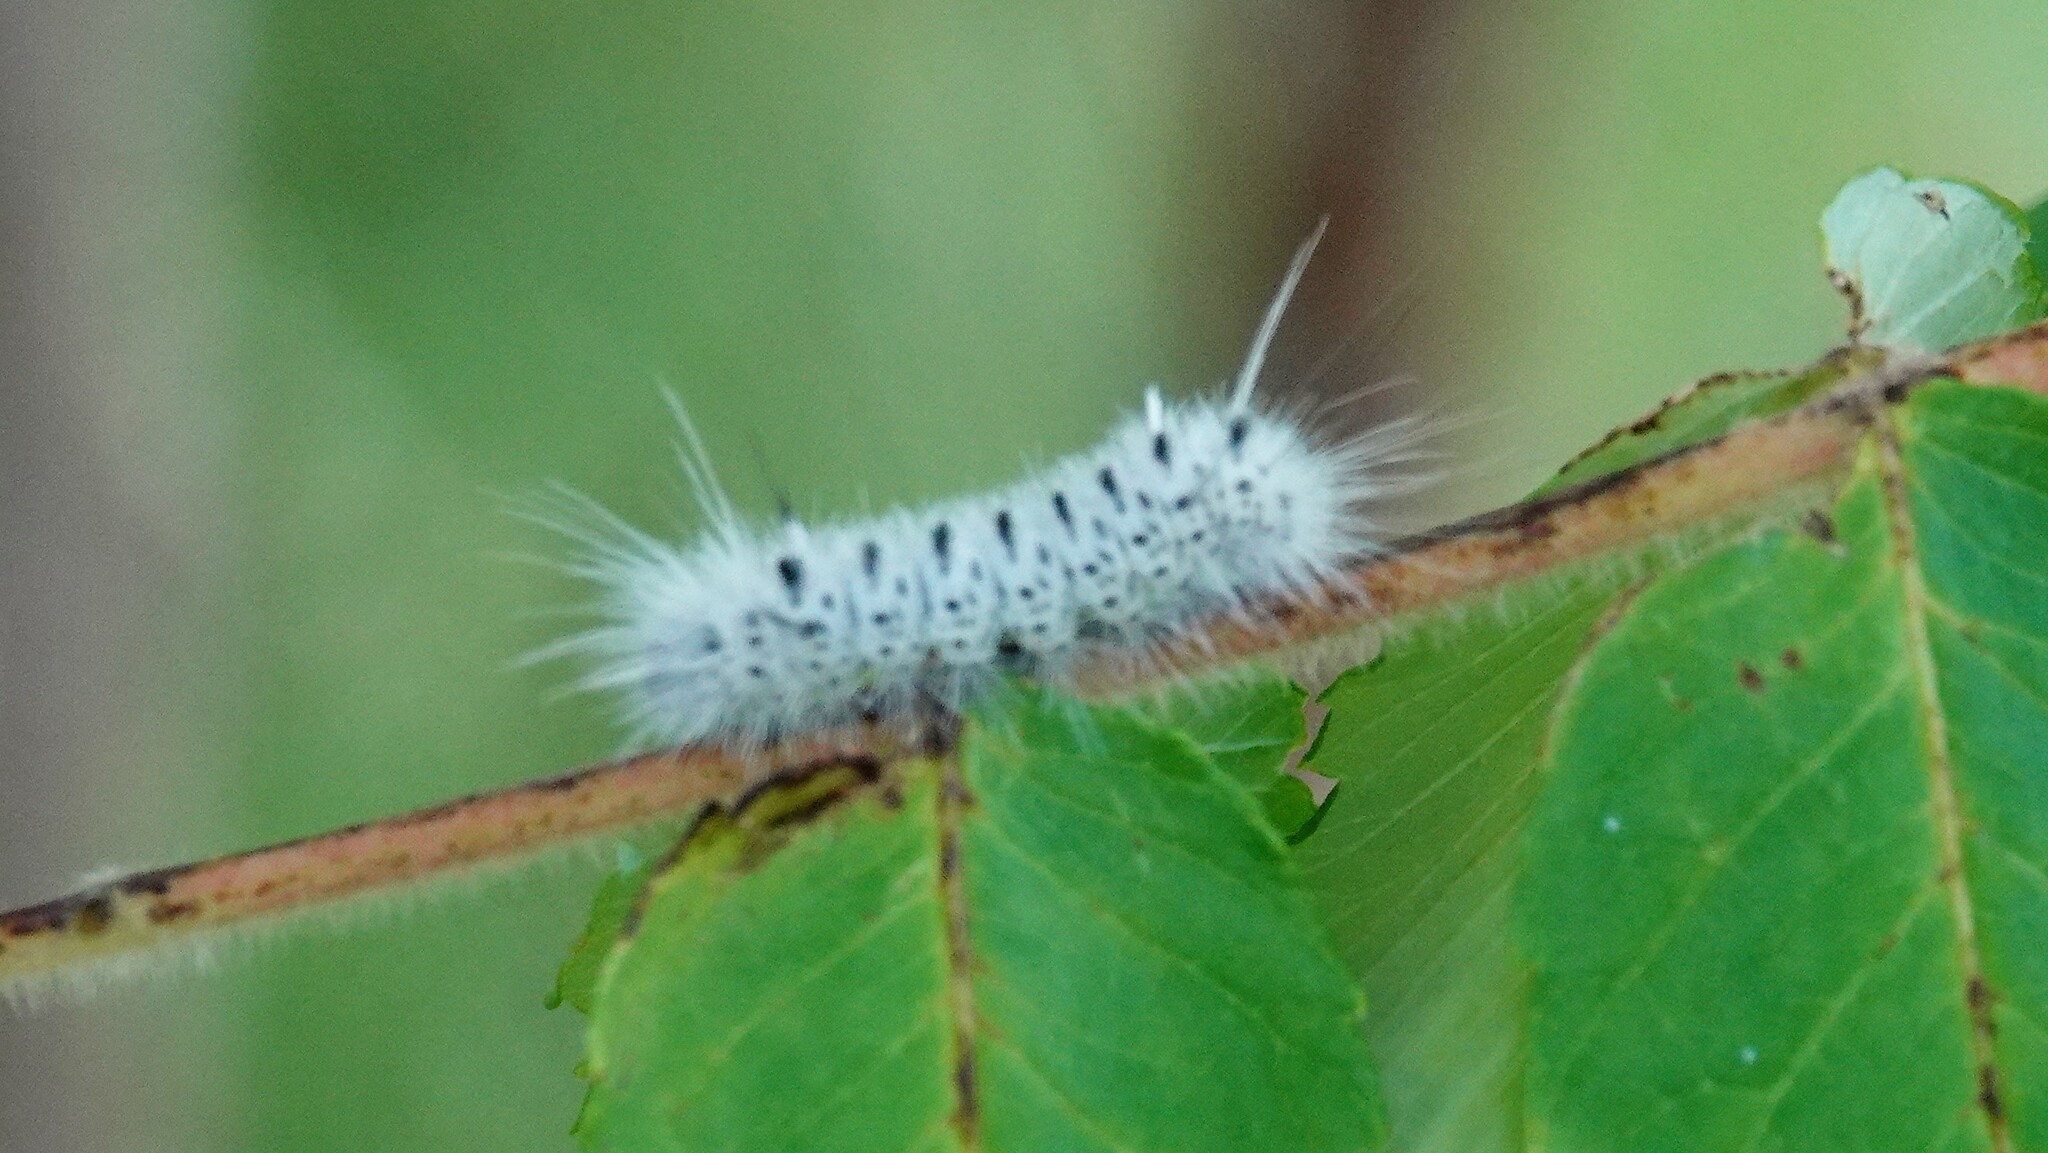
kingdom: Animalia
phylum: Arthropoda
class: Insecta
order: Lepidoptera
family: Erebidae
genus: Lophocampa
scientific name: Lophocampa caryae
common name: Hickory tussock moth
